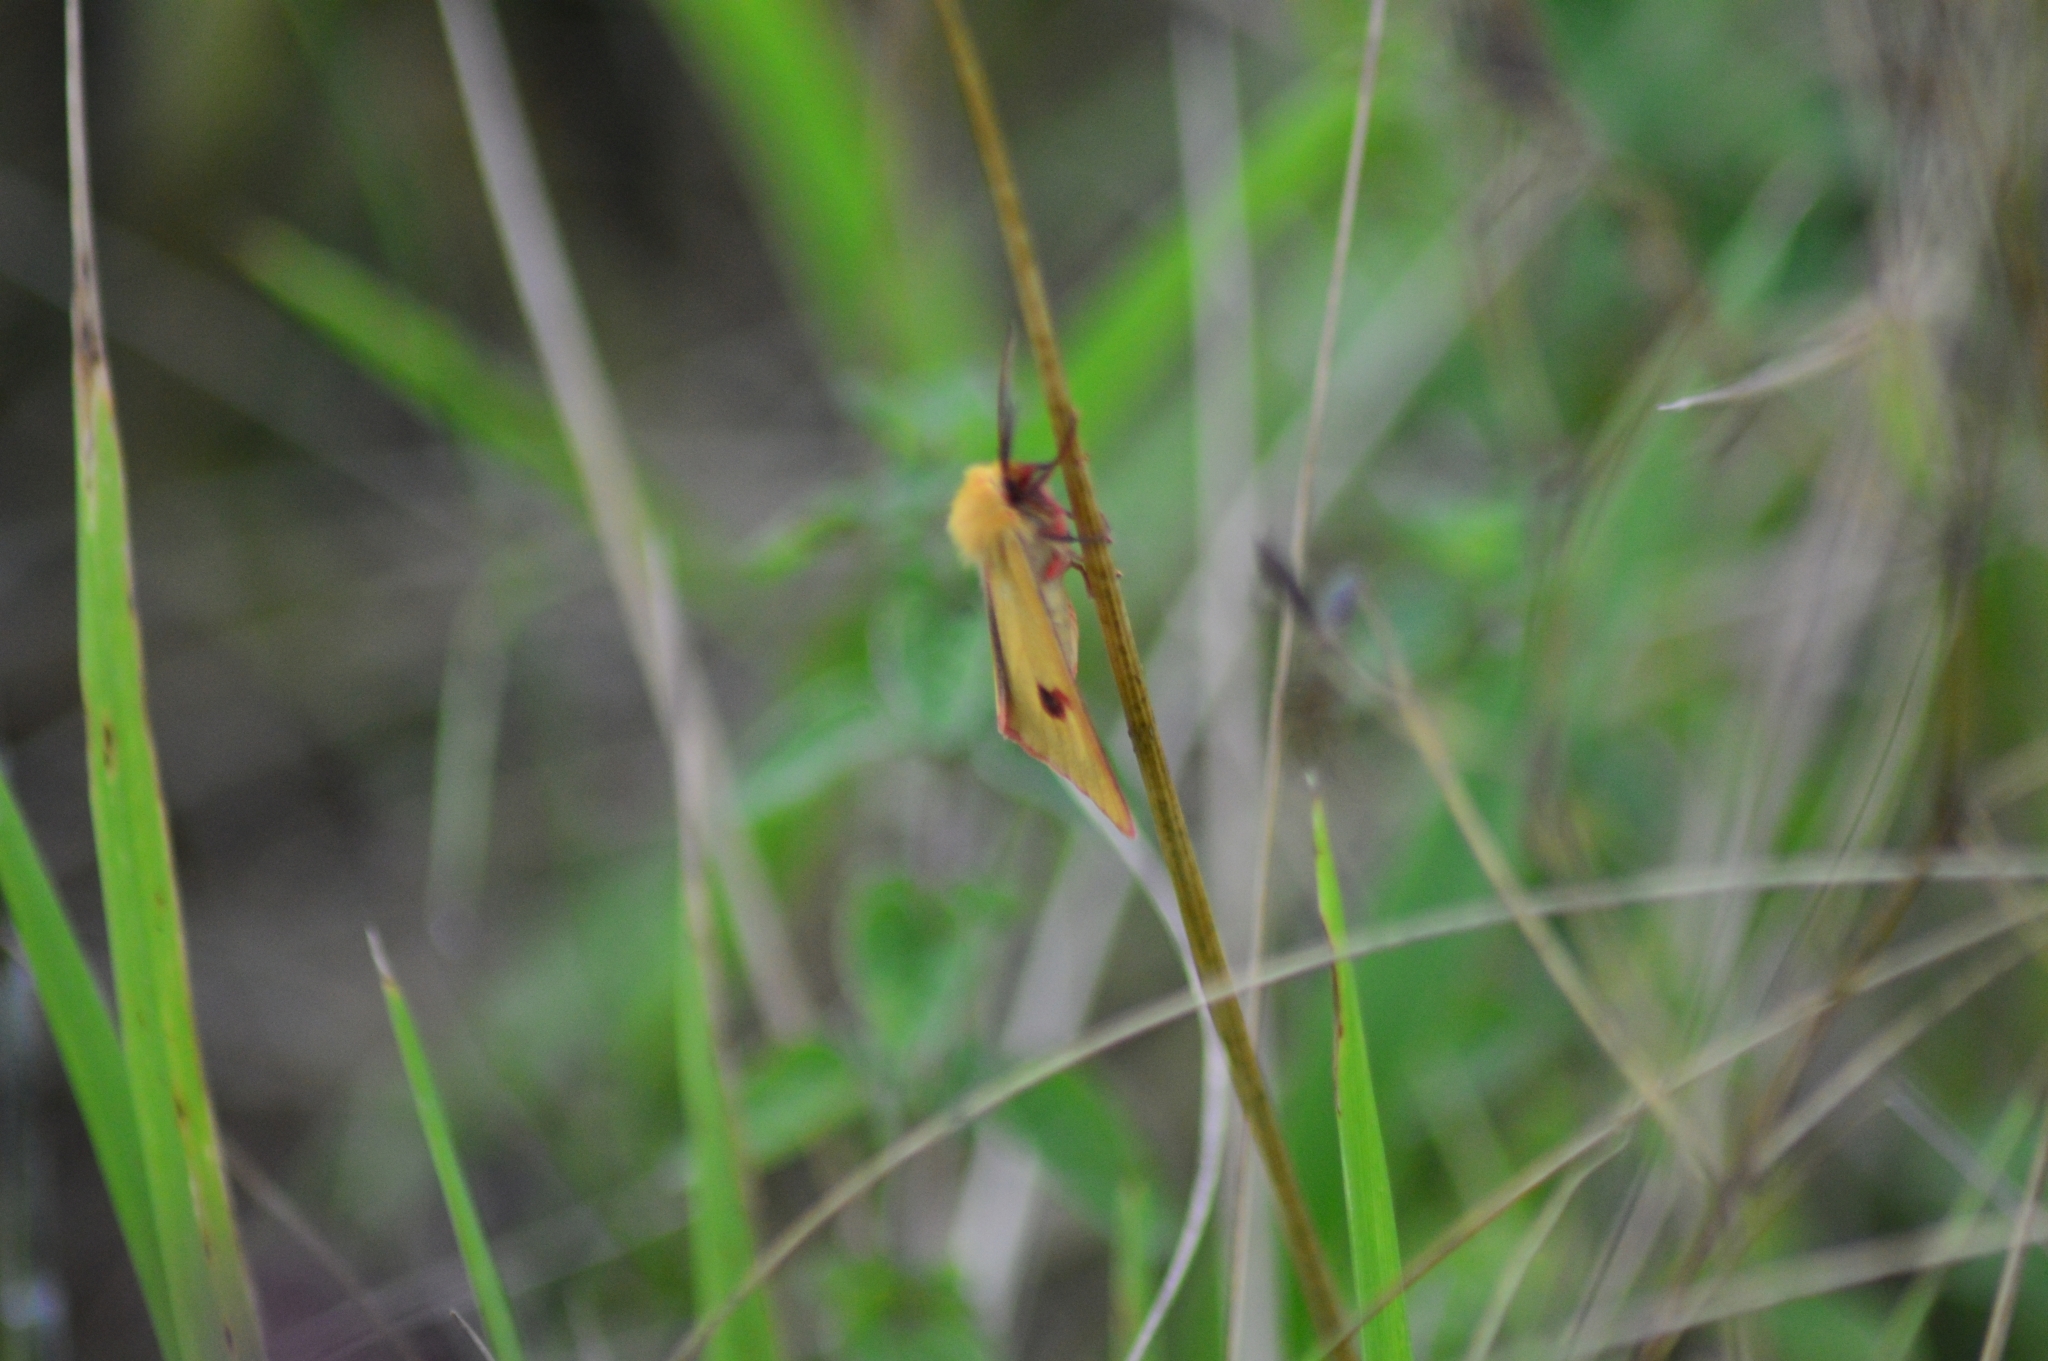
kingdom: Animalia
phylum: Arthropoda
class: Insecta
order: Lepidoptera
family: Erebidae
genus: Diacrisia
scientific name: Diacrisia sannio
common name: Clouded buff
